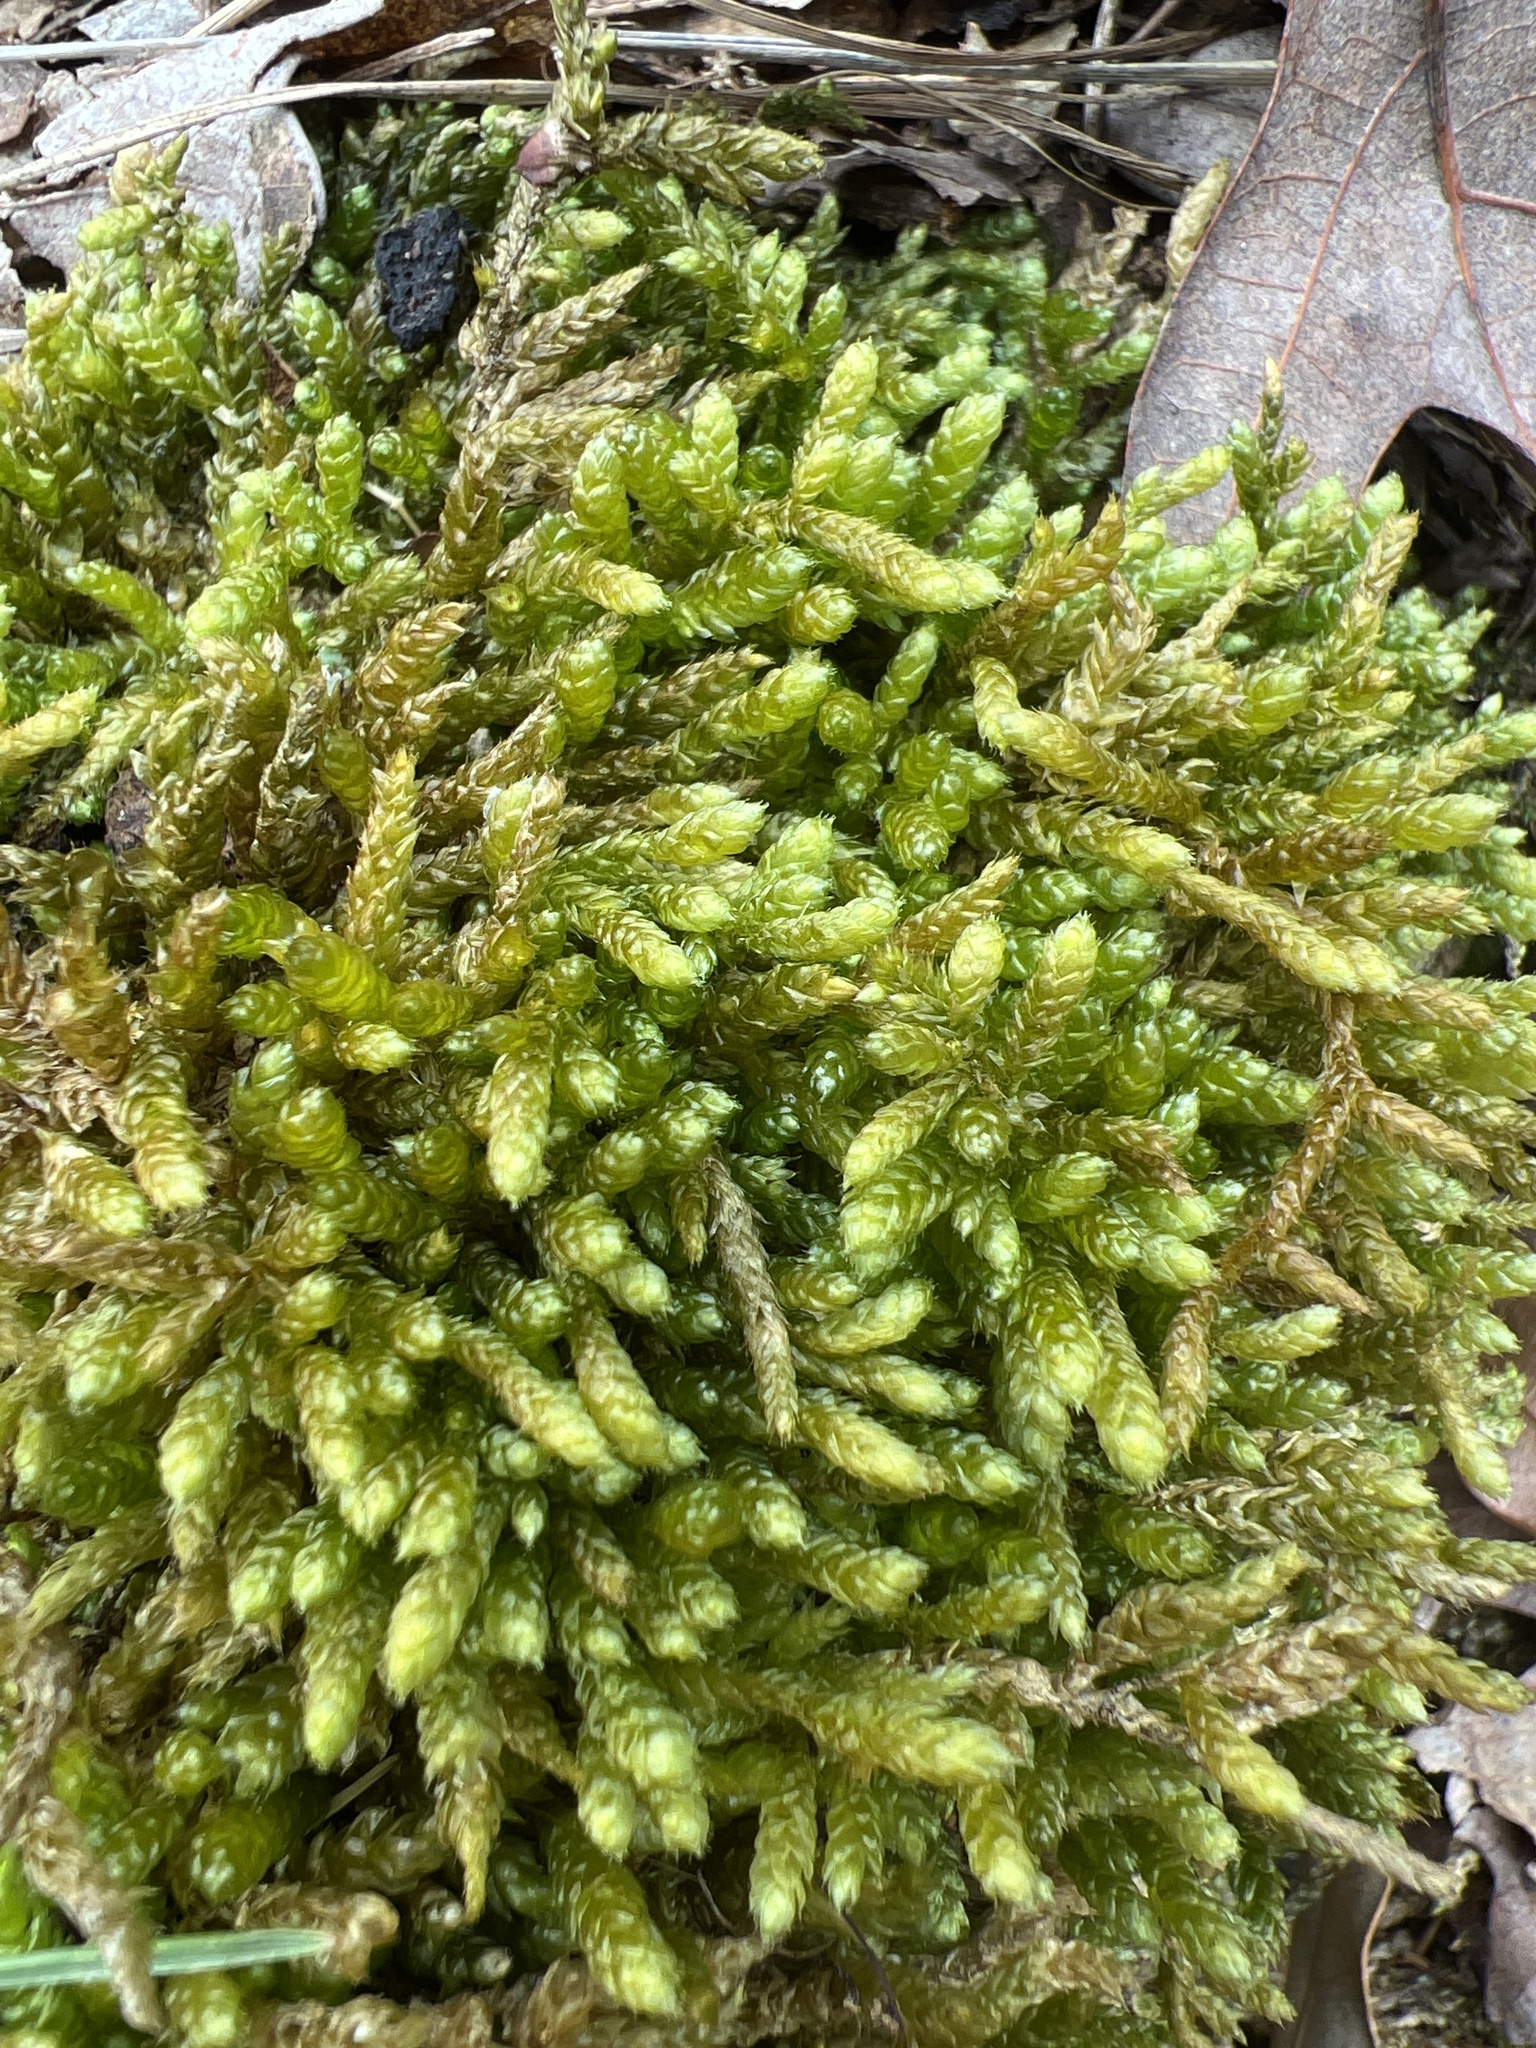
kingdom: Plantae
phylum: Bryophyta
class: Bryopsida
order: Hypnales
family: Brachytheciaceae
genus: Bryoandersonia
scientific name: Bryoandersonia illecebra
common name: Spoon-leaved moss
